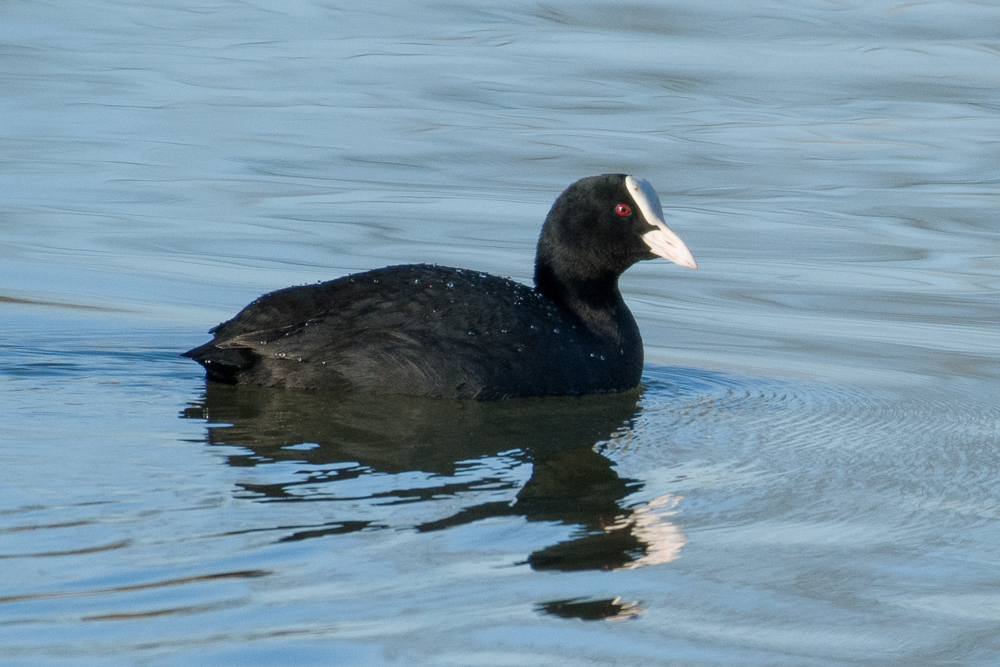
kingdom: Animalia
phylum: Chordata
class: Aves
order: Gruiformes
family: Rallidae
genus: Fulica
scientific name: Fulica atra
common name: Eurasian coot
